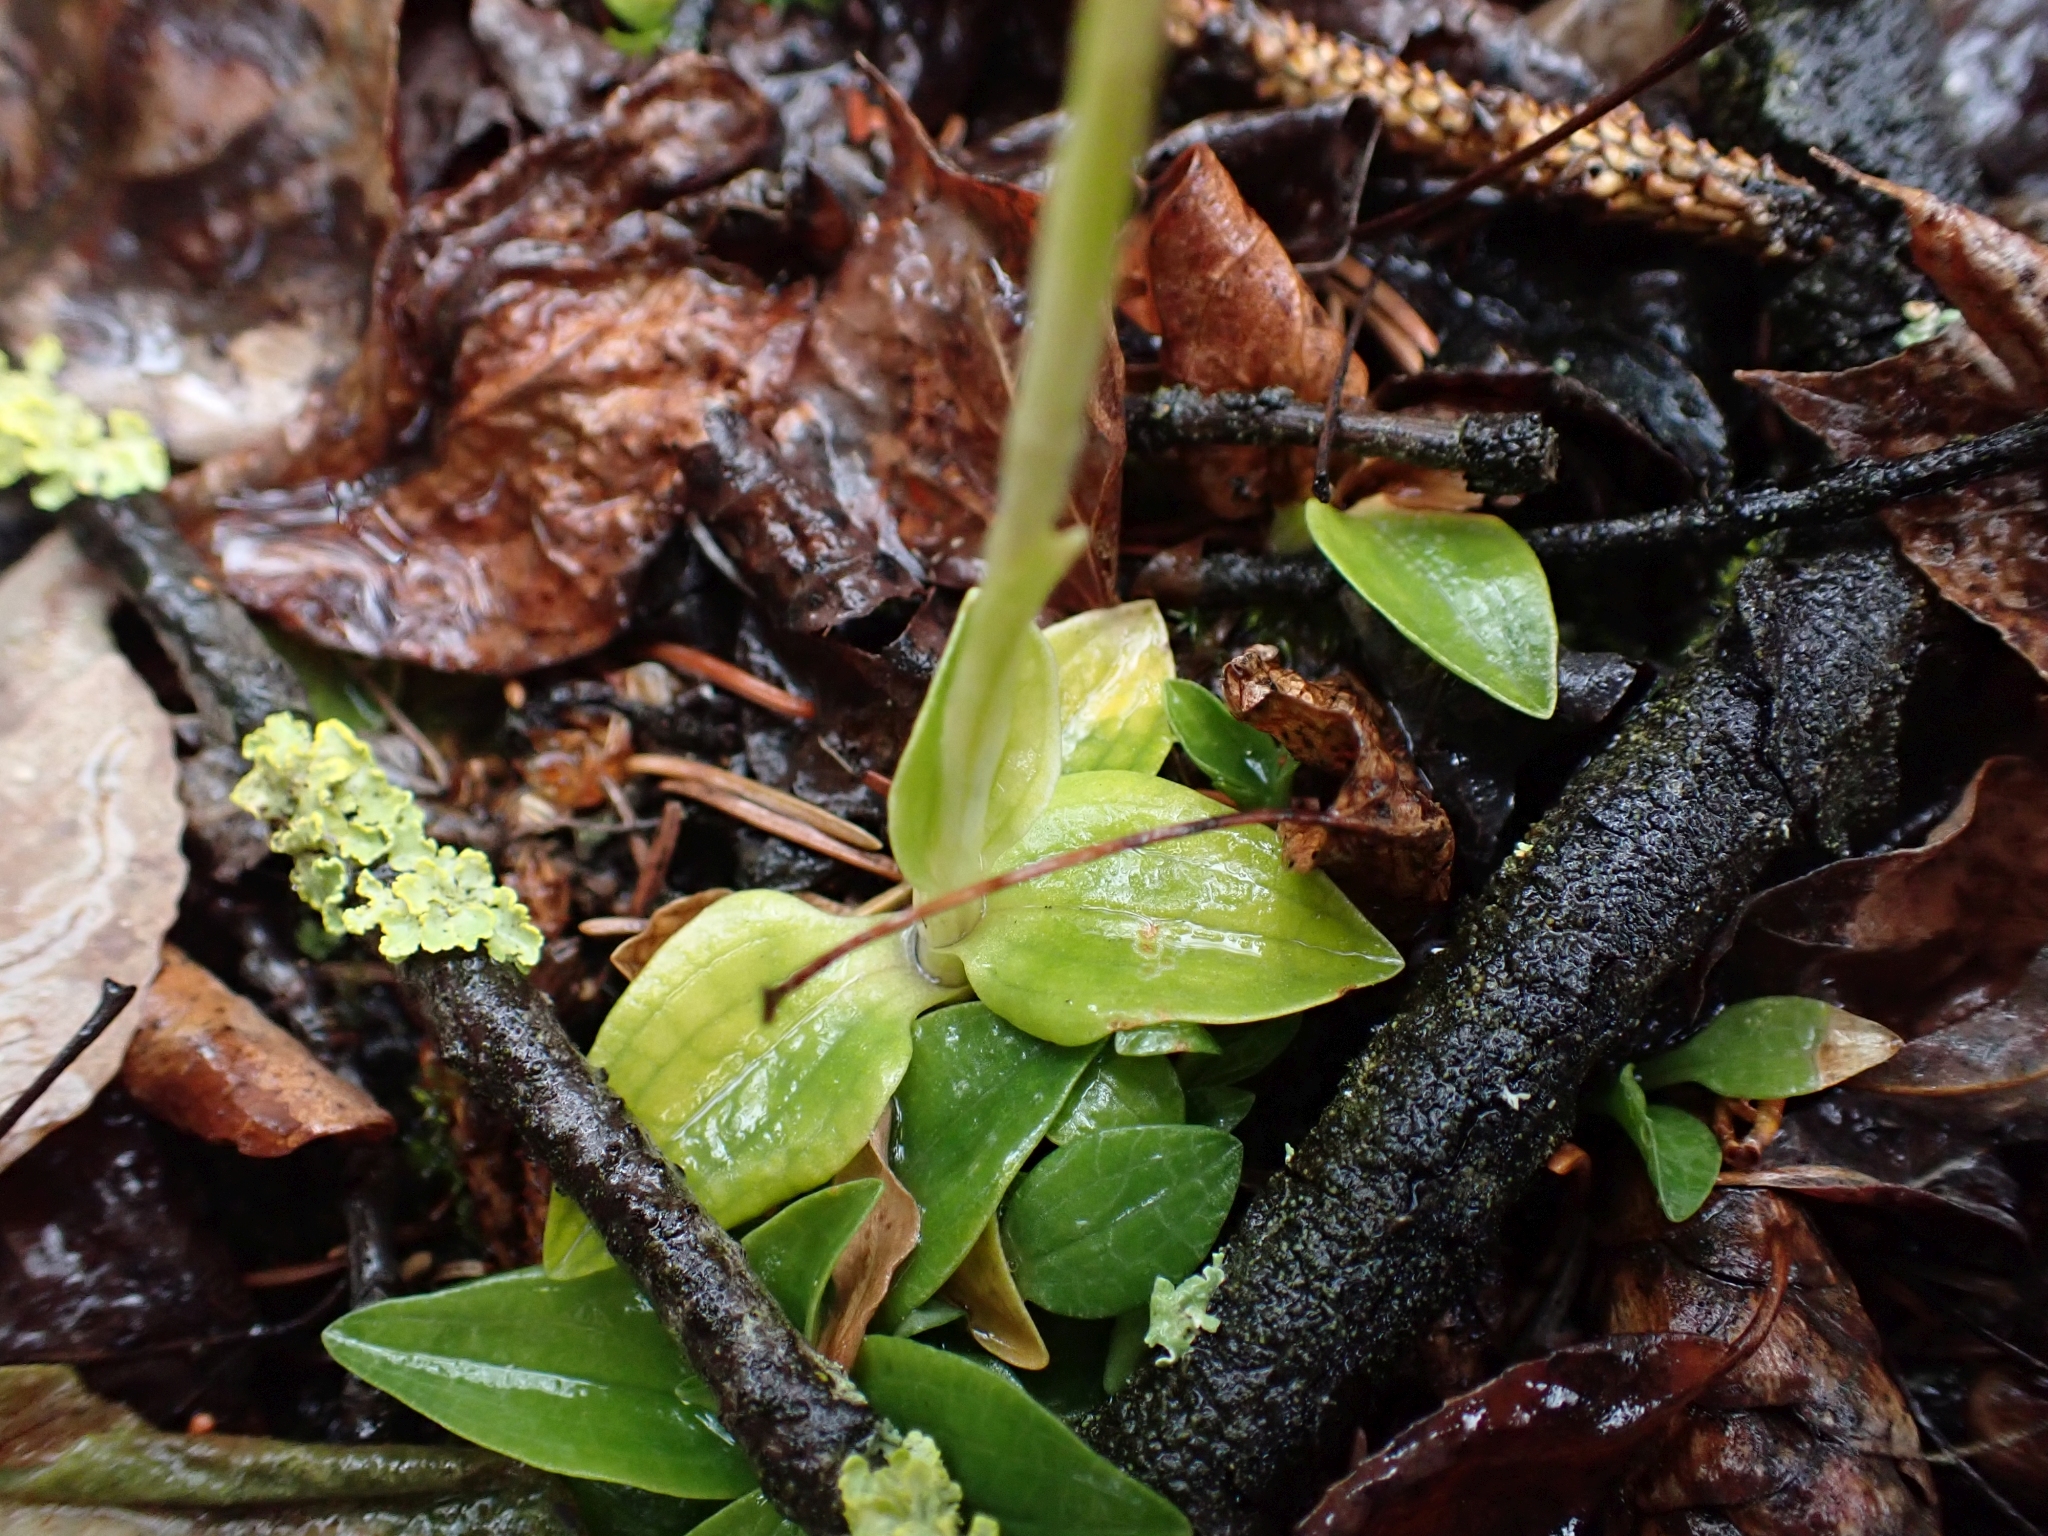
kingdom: Plantae
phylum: Tracheophyta
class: Liliopsida
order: Asparagales
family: Orchidaceae
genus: Goodyera
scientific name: Goodyera repens
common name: Creeping lady's-tresses
